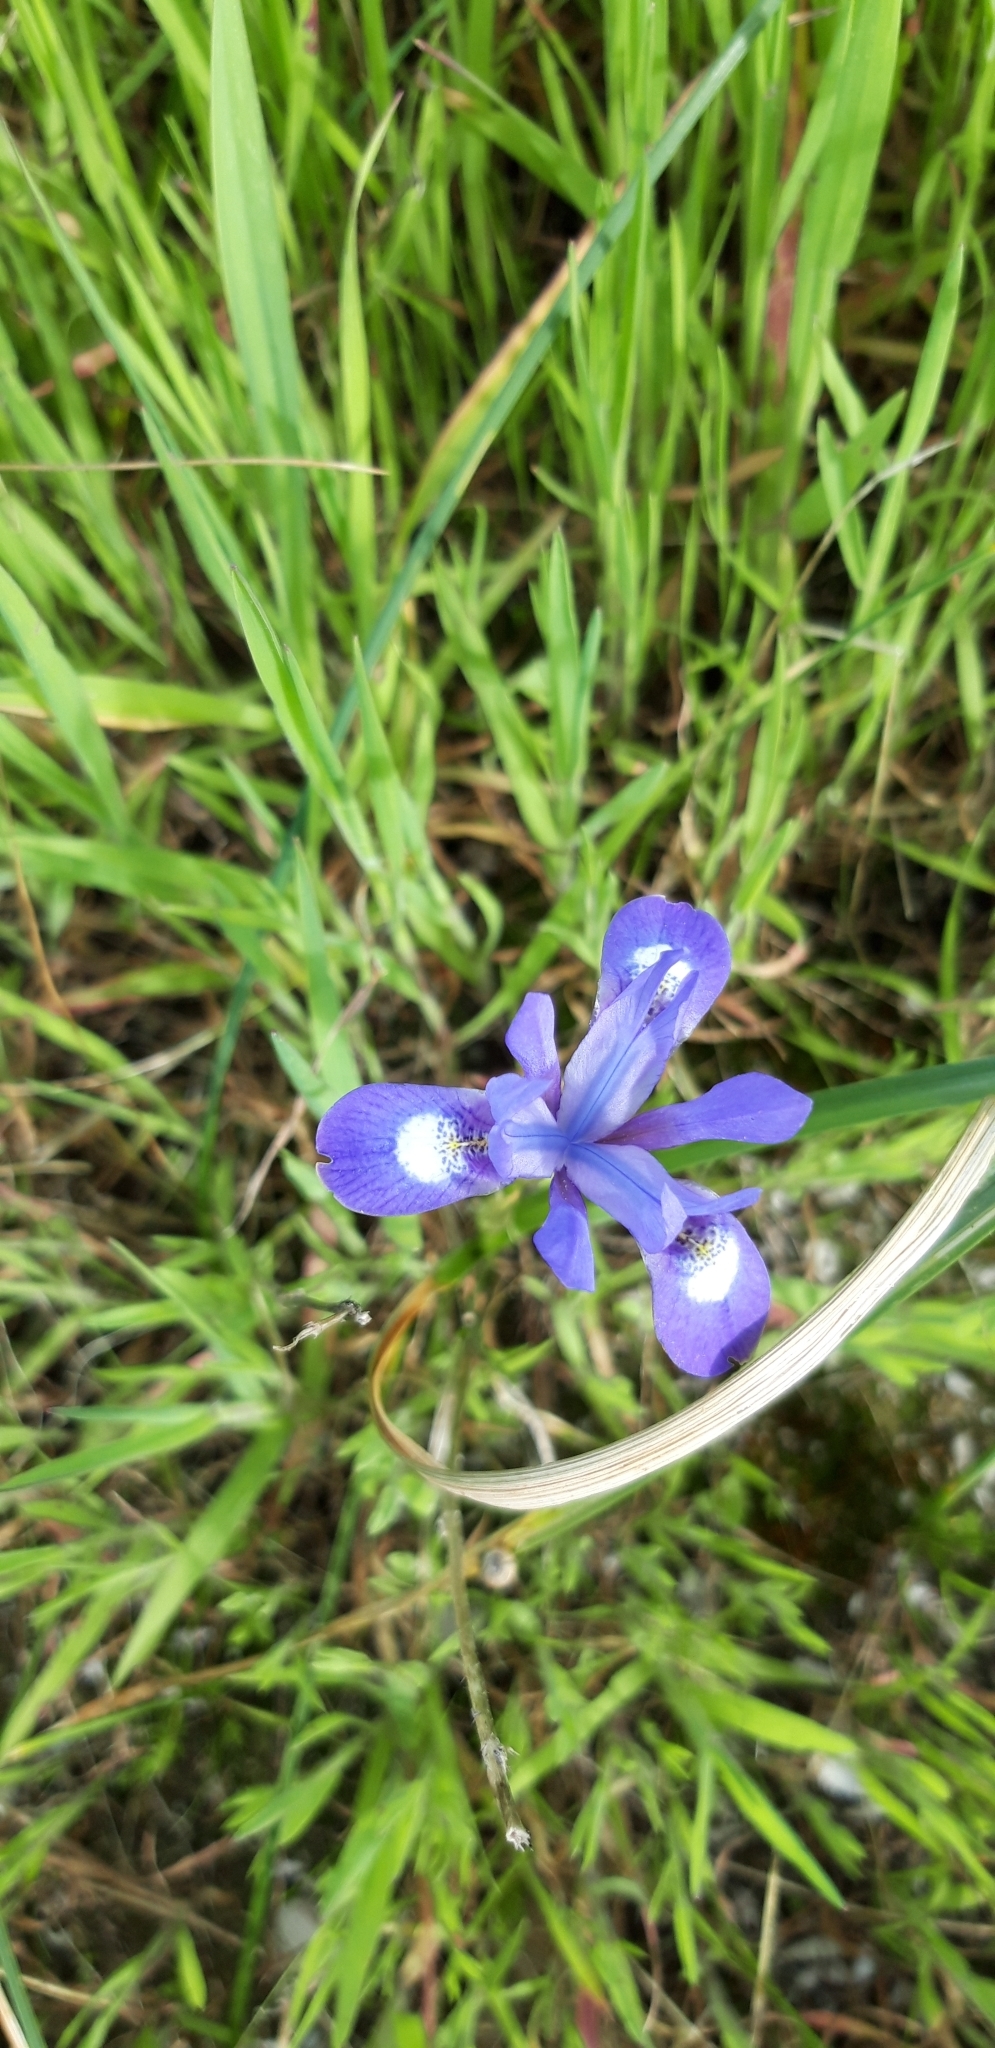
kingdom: Plantae
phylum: Tracheophyta
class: Liliopsida
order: Asparagales
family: Iridaceae
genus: Moraea
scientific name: Moraea sisyrinchium
